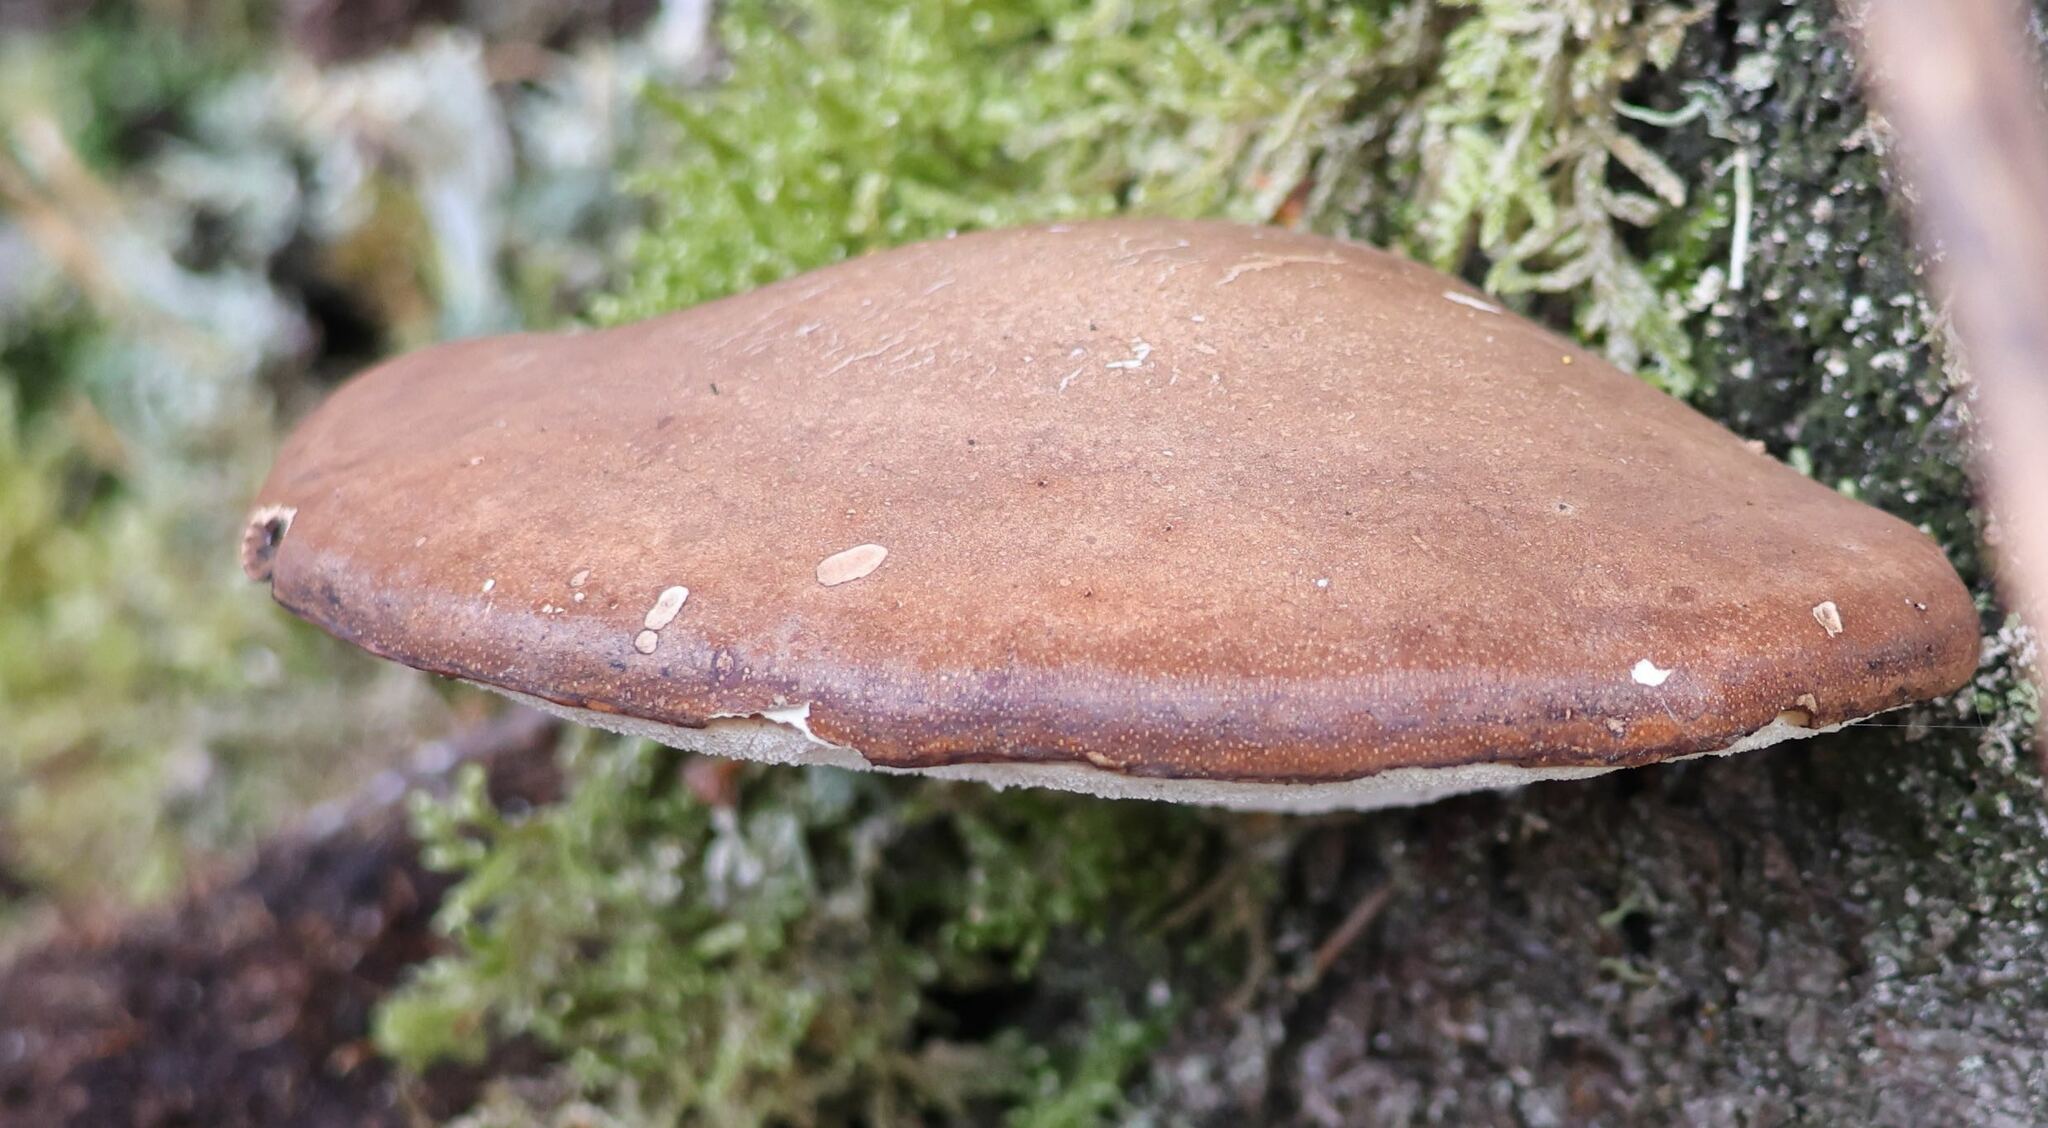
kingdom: Fungi
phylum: Basidiomycota
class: Agaricomycetes
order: Polyporales
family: Fomitopsidaceae
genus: Fomitopsis
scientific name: Fomitopsis betulina
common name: Birch polypore
